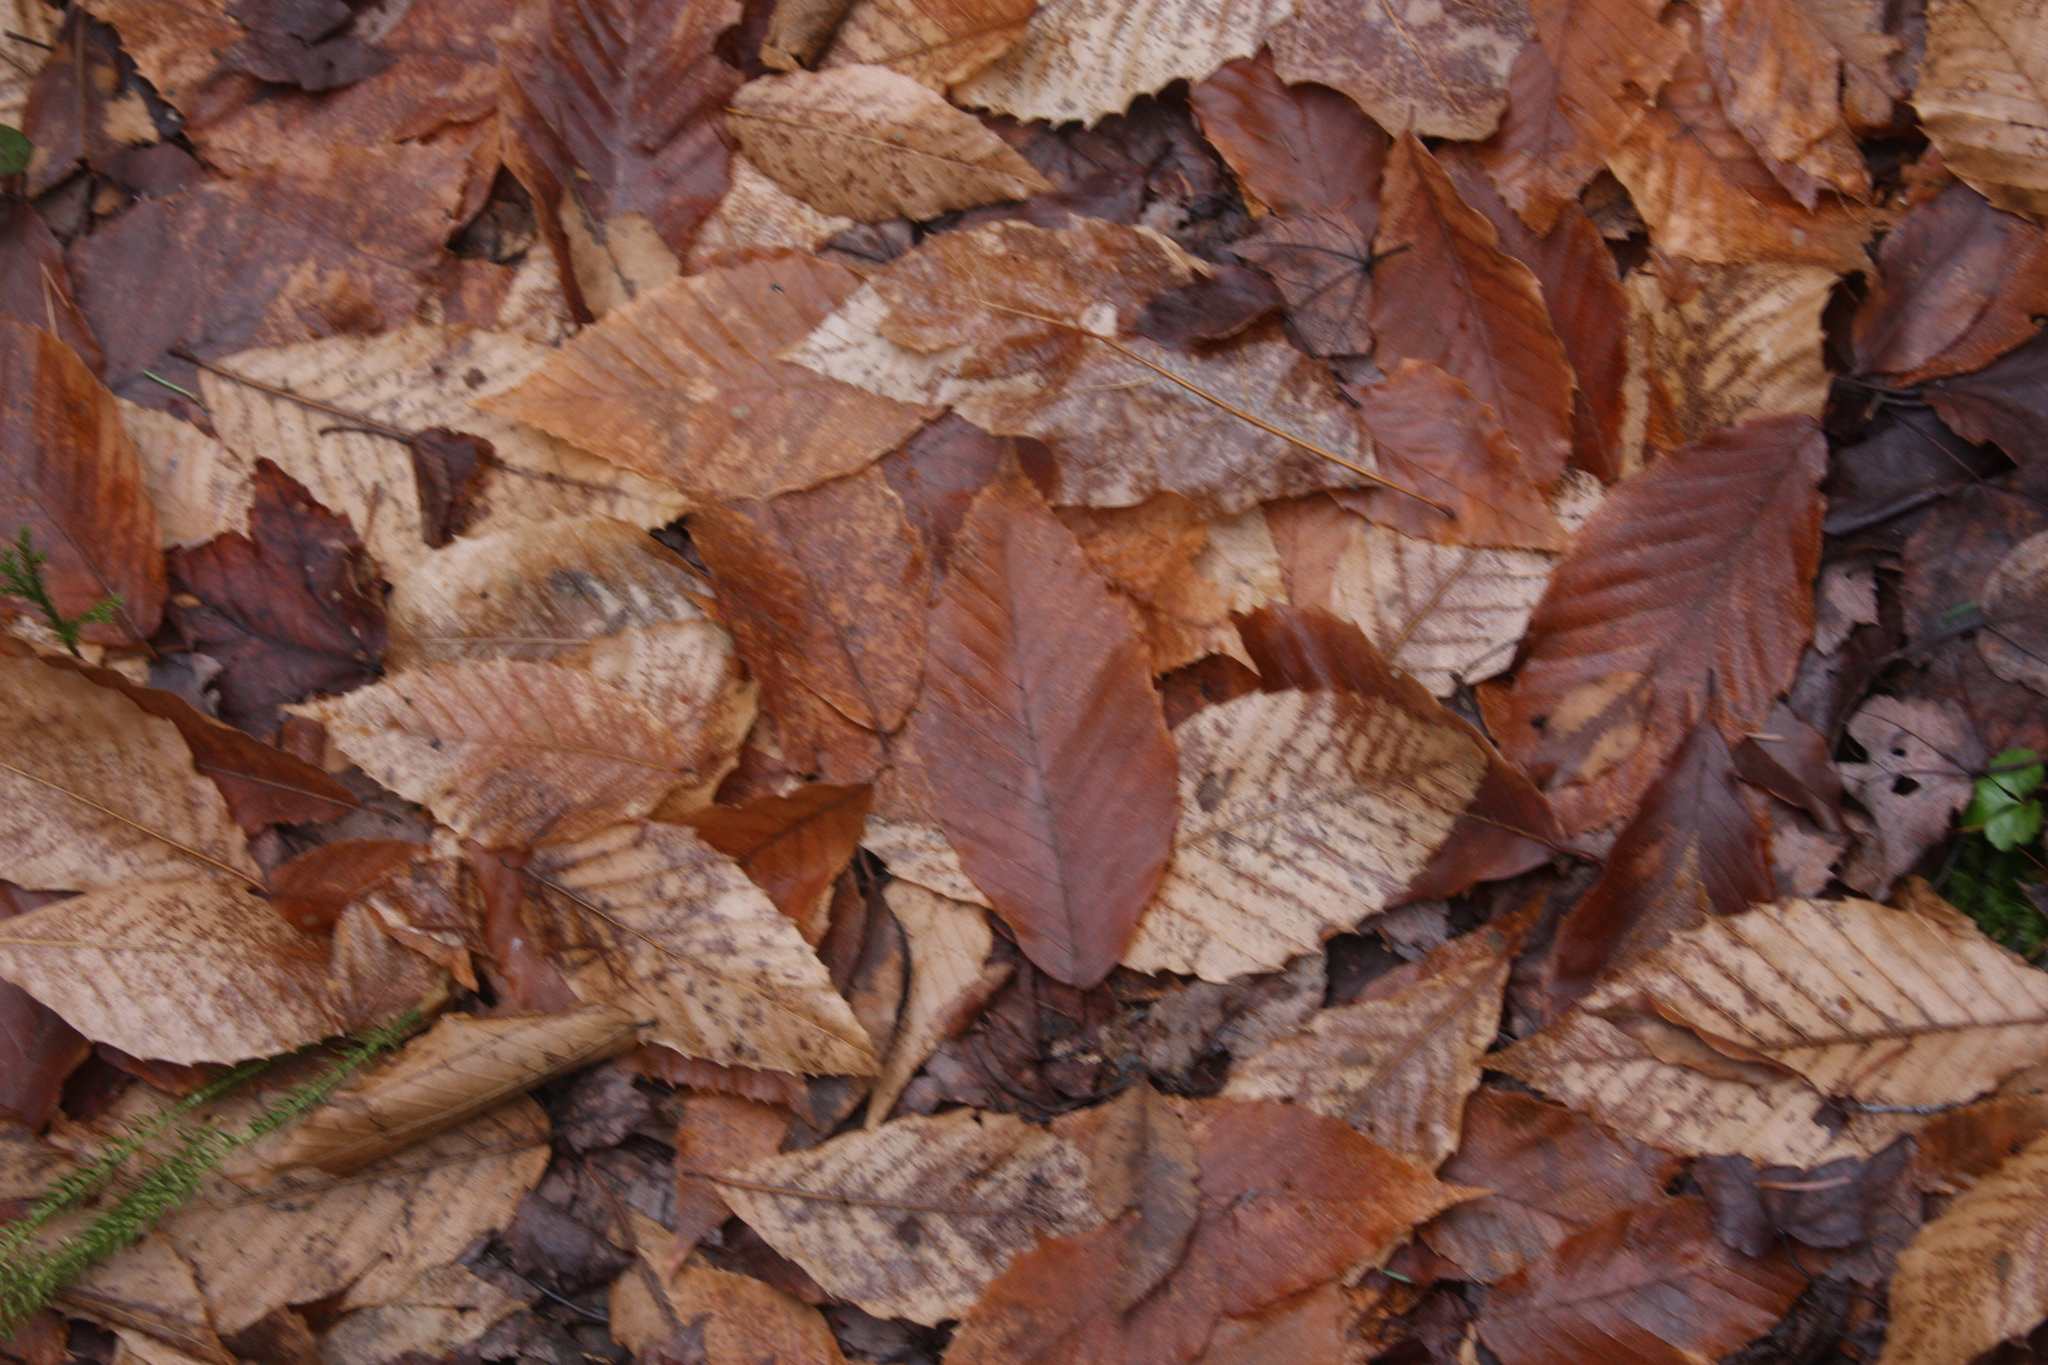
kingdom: Plantae
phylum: Tracheophyta
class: Magnoliopsida
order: Fagales
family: Fagaceae
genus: Fagus
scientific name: Fagus grandifolia
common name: American beech
